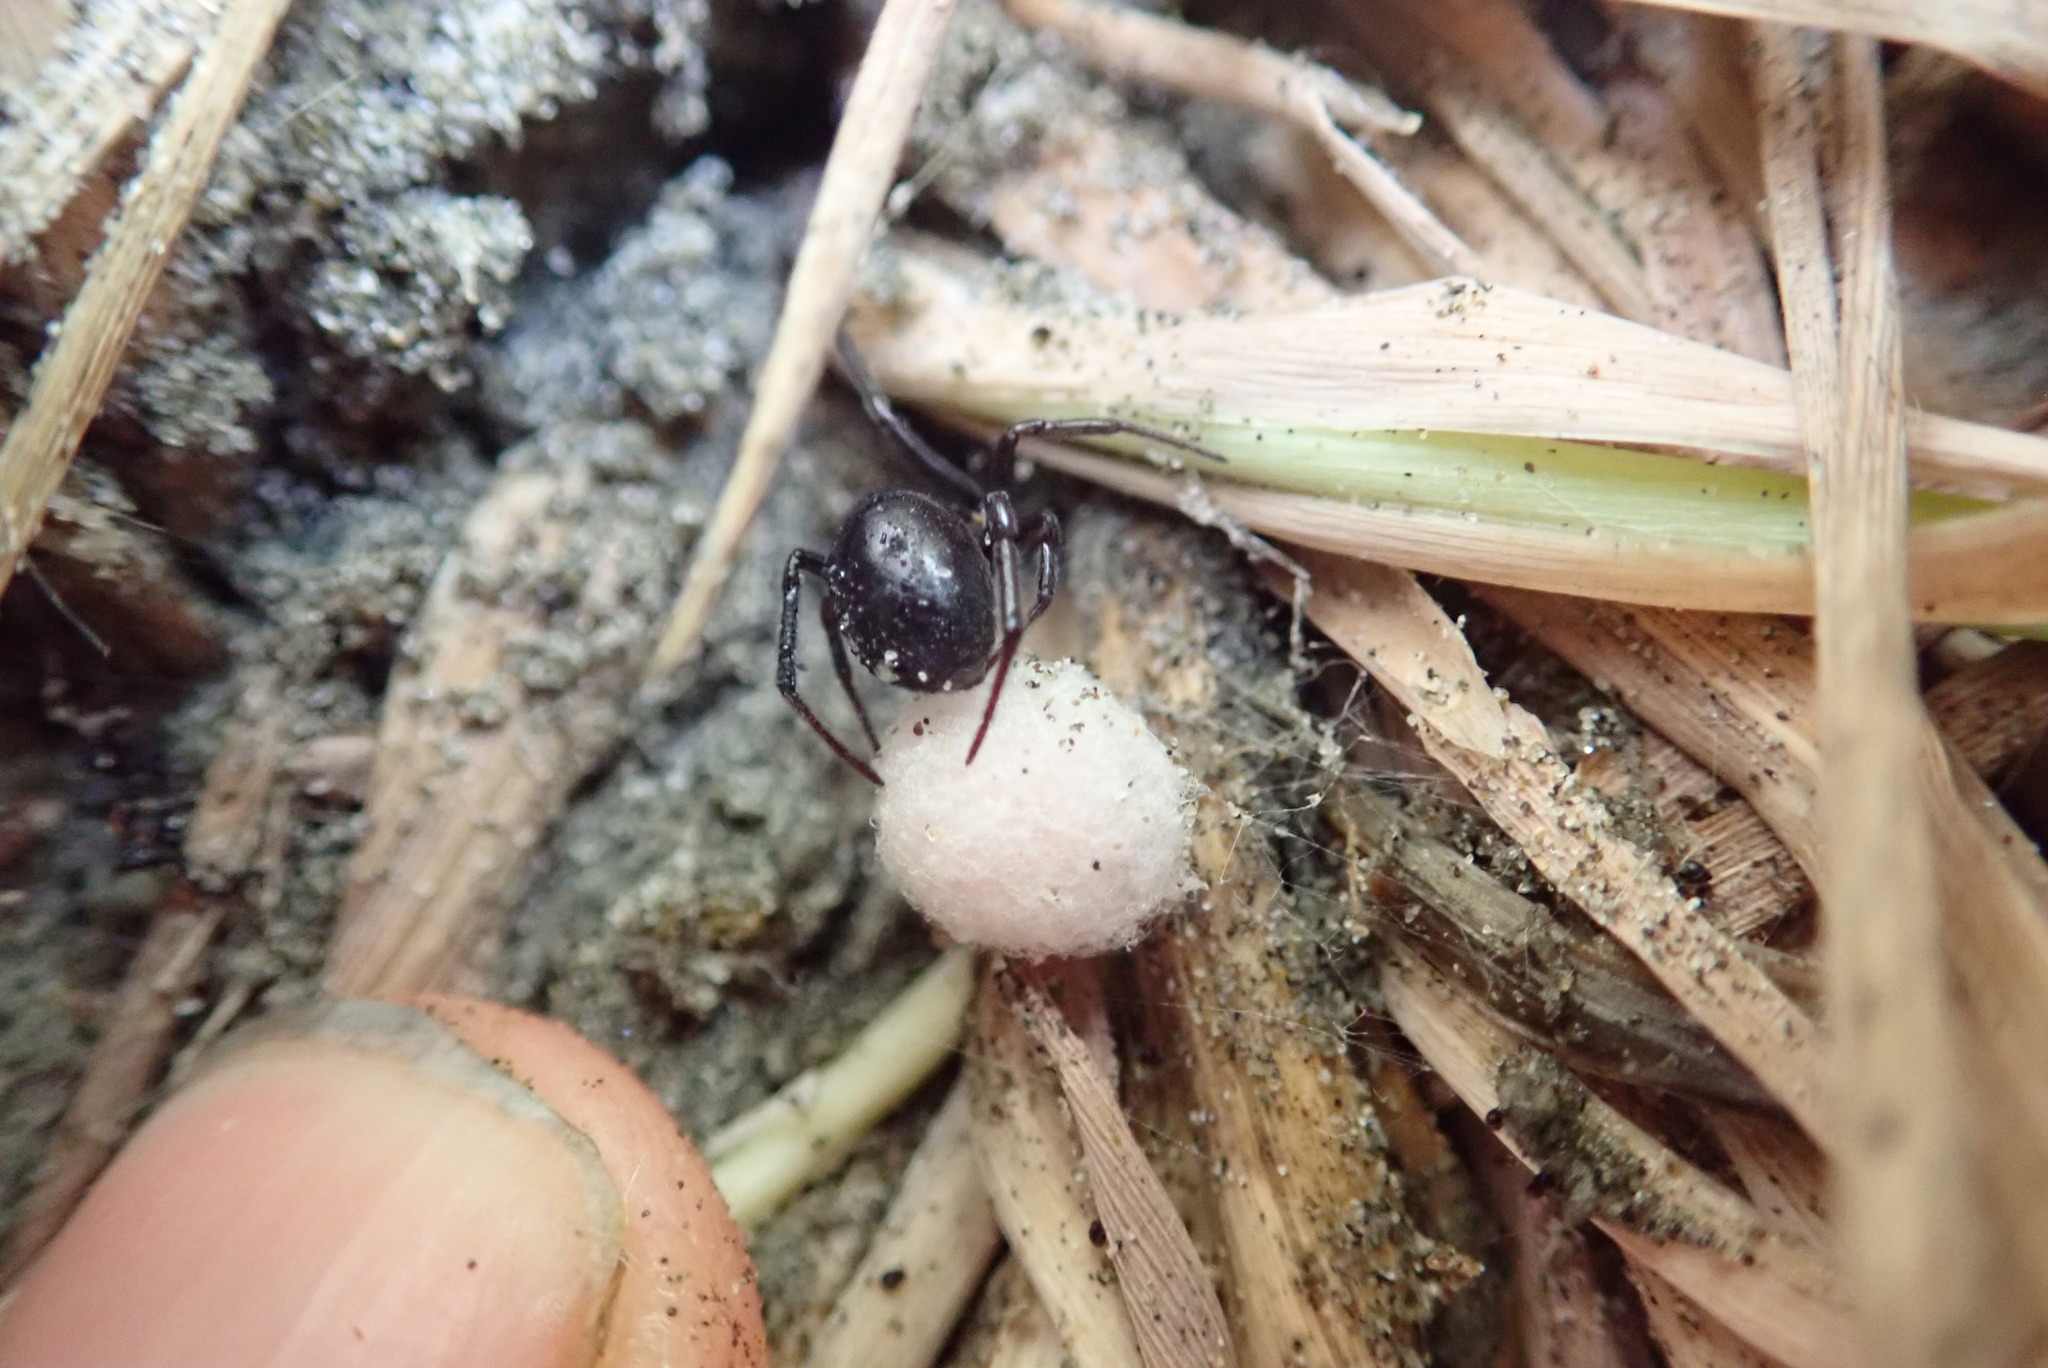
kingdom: Animalia
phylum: Arthropoda
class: Arachnida
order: Araneae
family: Theridiidae
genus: Steatoda
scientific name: Steatoda capensis
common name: Cobweb weaver
